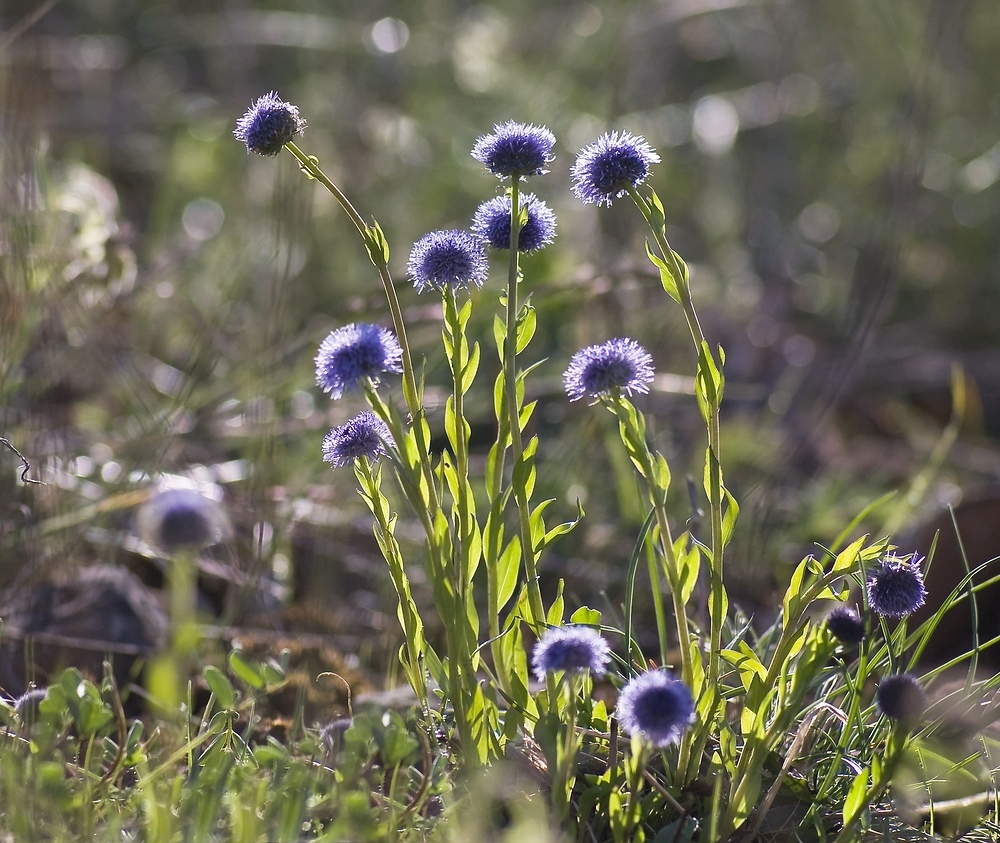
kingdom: Plantae
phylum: Tracheophyta
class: Magnoliopsida
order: Lamiales
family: Plantaginaceae
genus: Globularia
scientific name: Globularia bisnagarica
